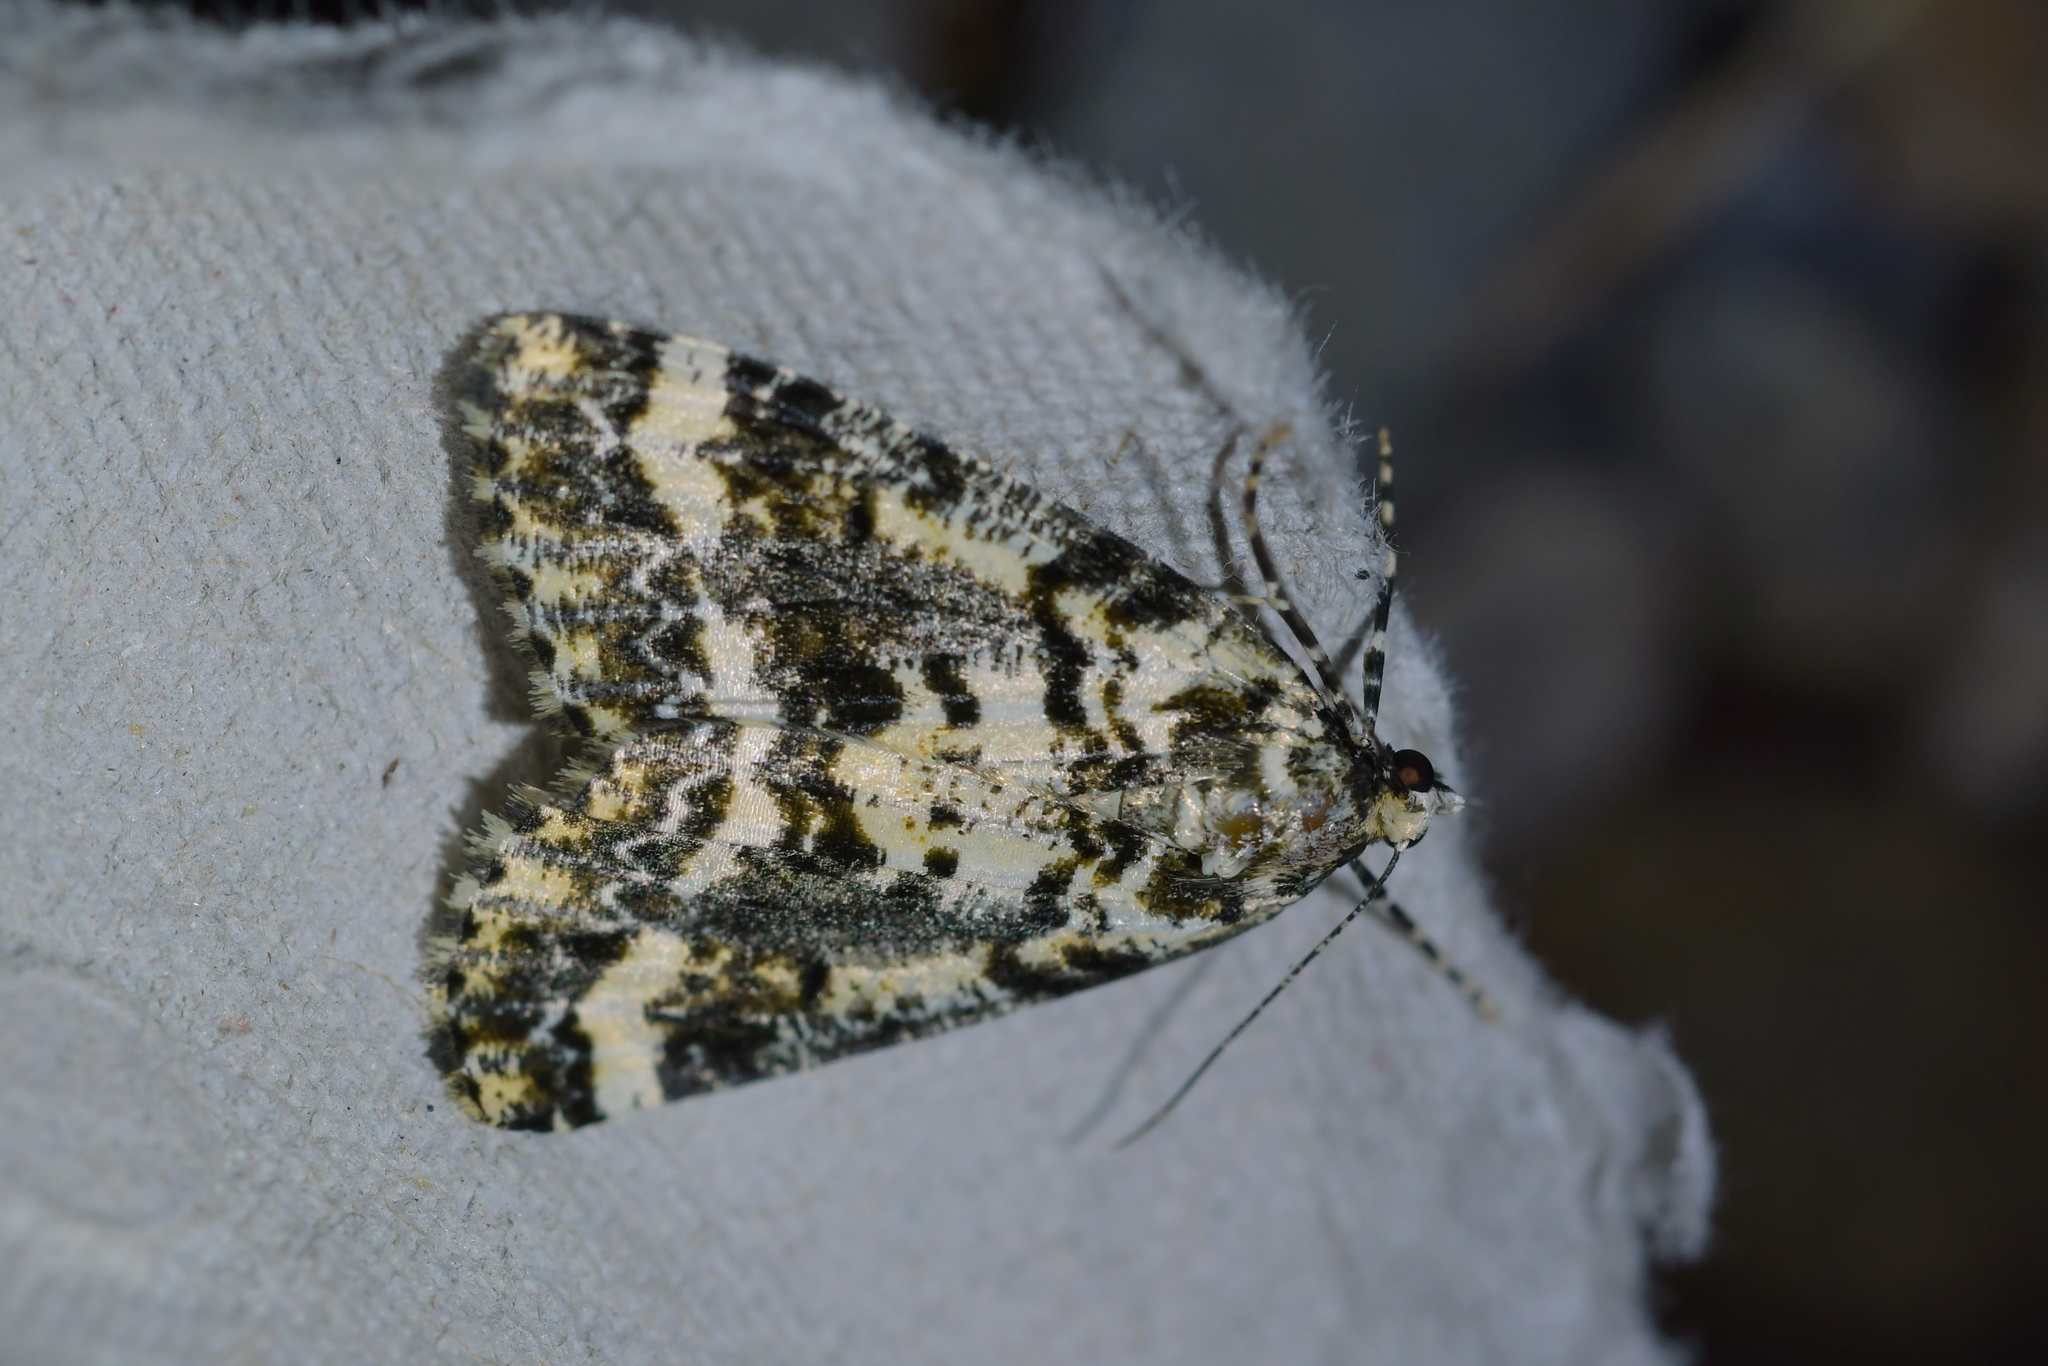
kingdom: Animalia
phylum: Arthropoda
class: Insecta
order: Lepidoptera
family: Geometridae
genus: Pseudocoremia
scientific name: Pseudocoremia leucelaea
